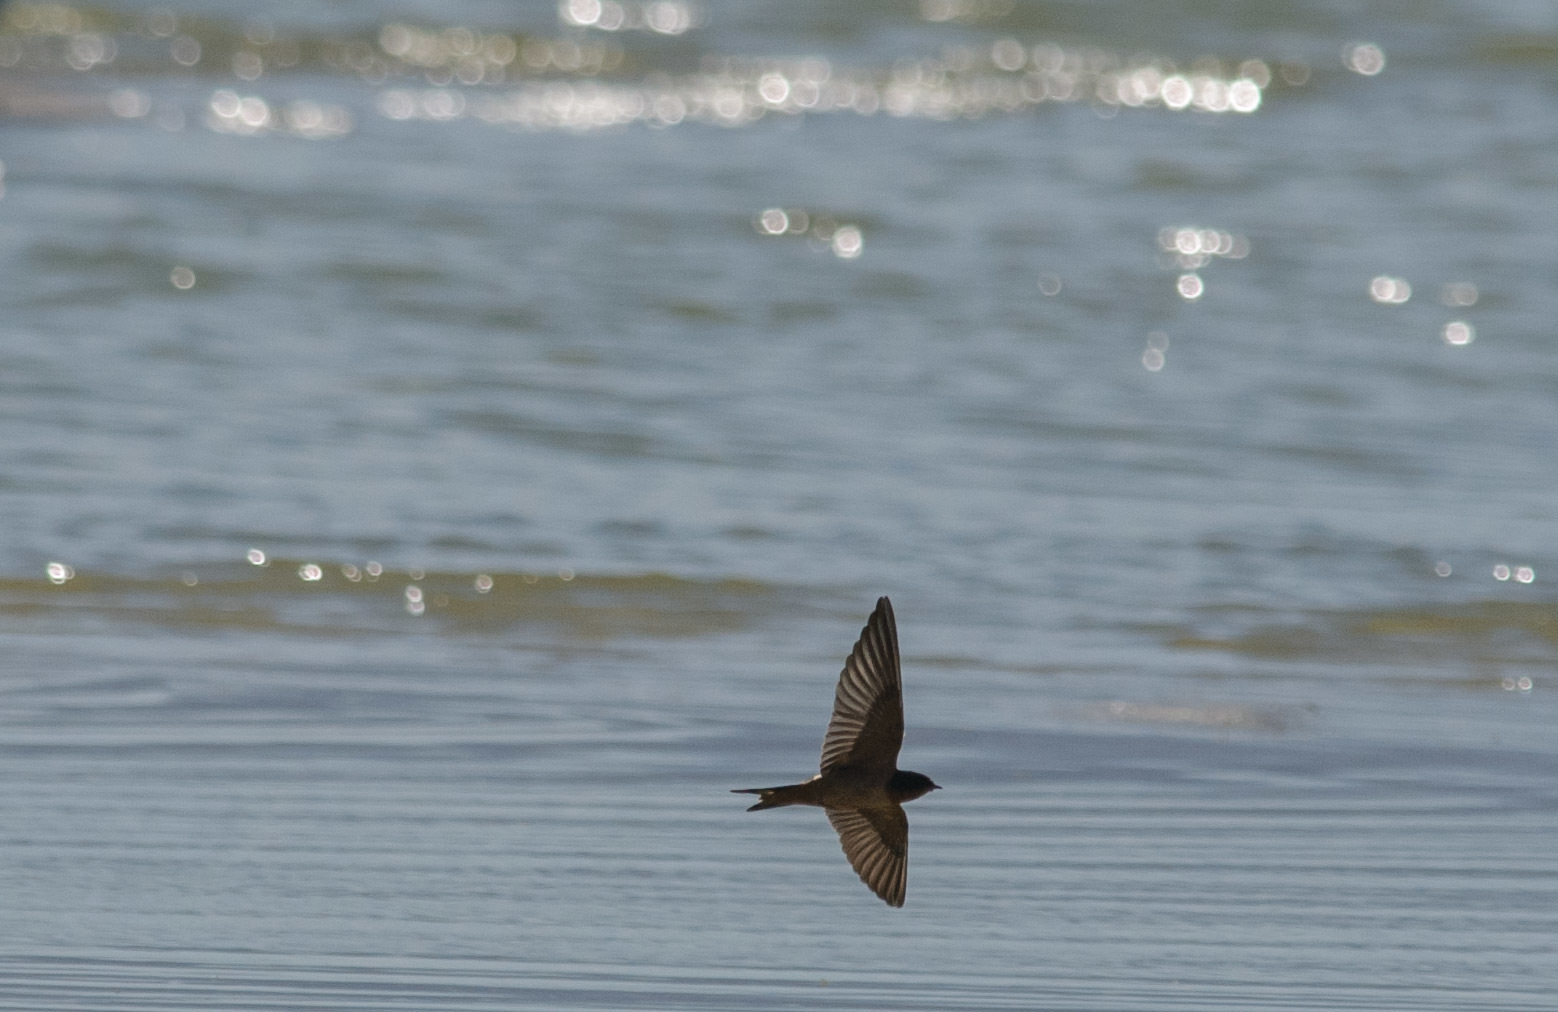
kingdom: Animalia
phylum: Chordata
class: Aves
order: Passeriformes
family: Hirundinidae
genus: Hirundo
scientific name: Hirundo rustica
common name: Barn swallow
